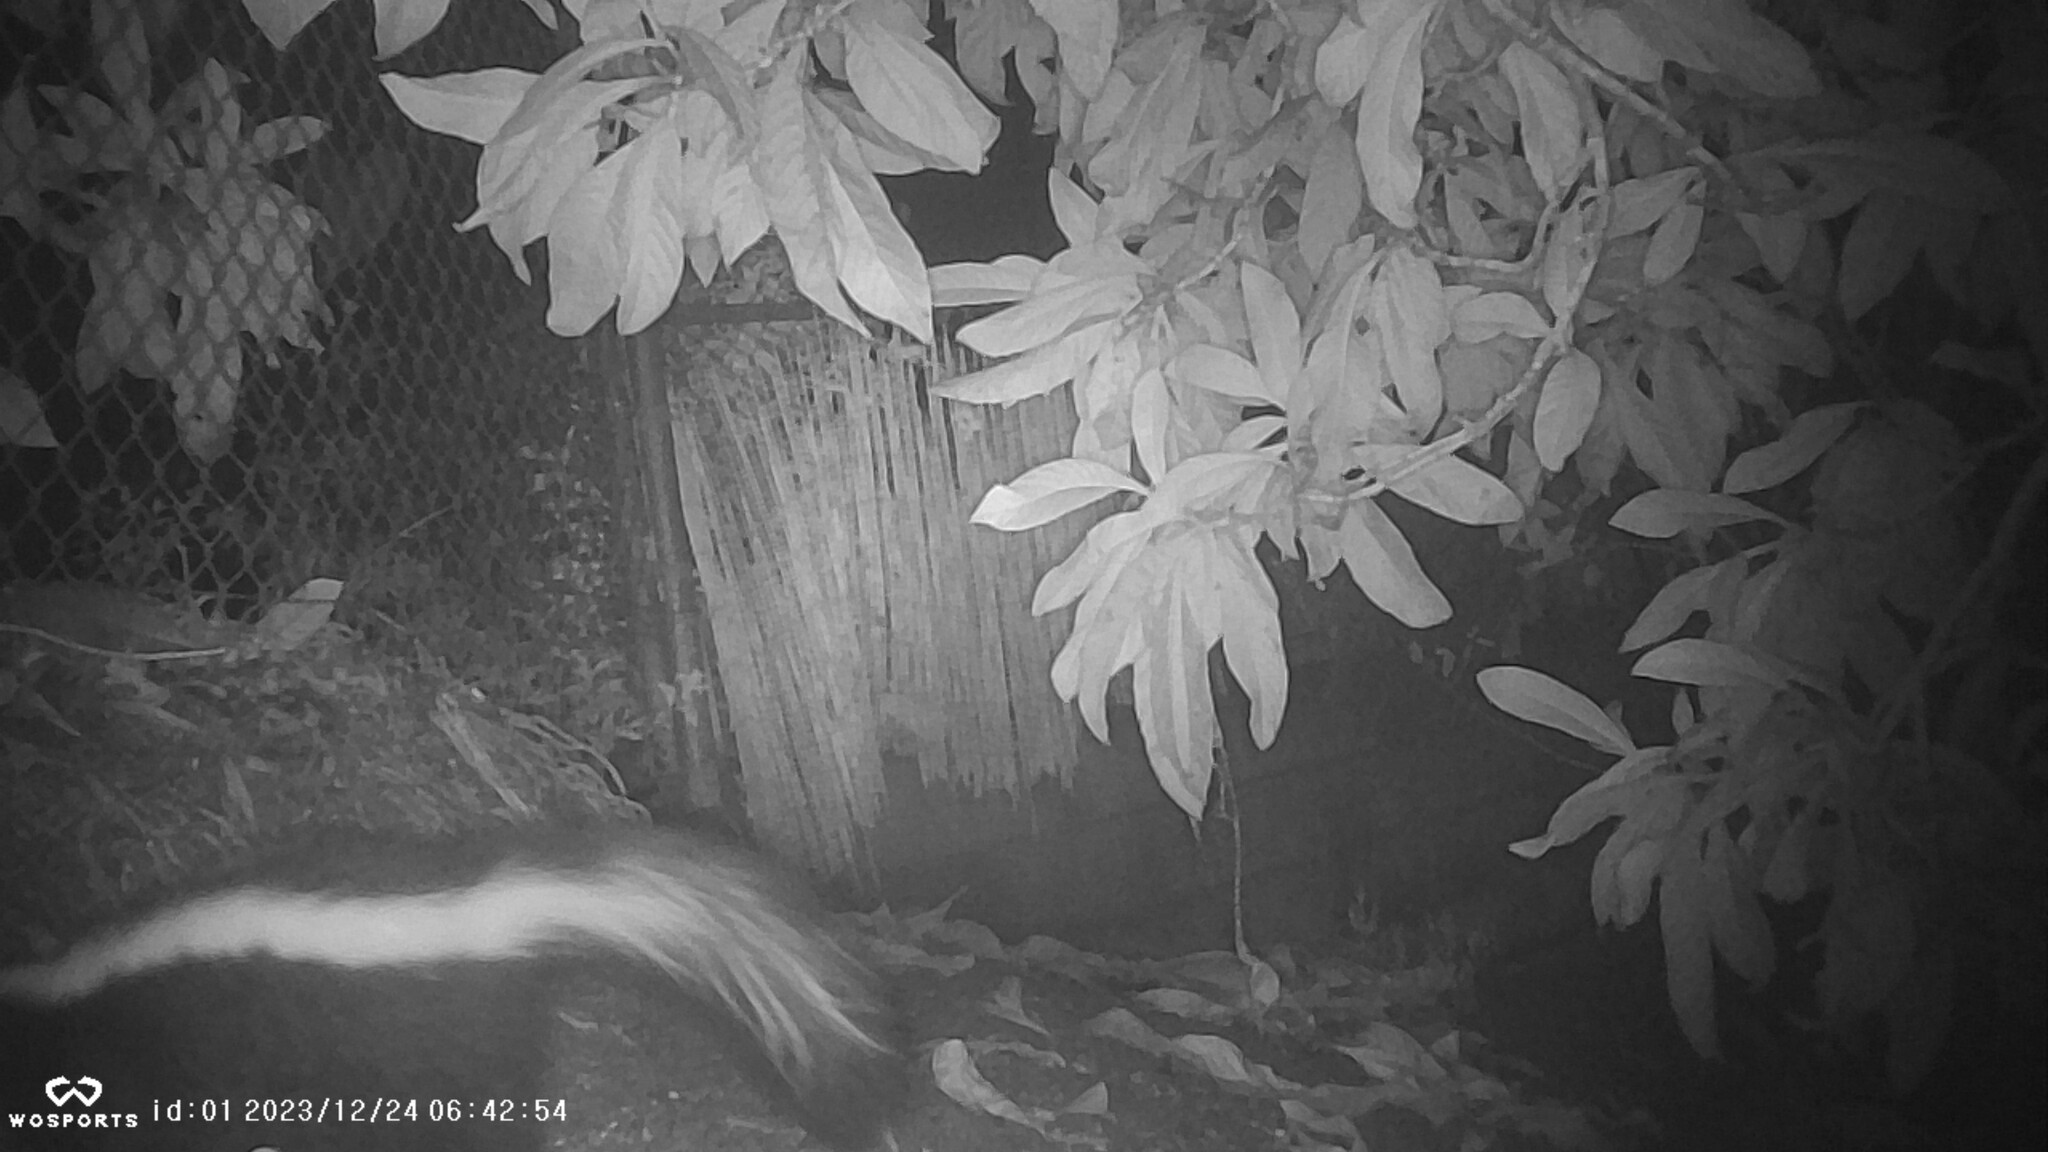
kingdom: Animalia
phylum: Chordata
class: Mammalia
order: Carnivora
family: Mephitidae
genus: Mephitis
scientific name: Mephitis mephitis
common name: Striped skunk
